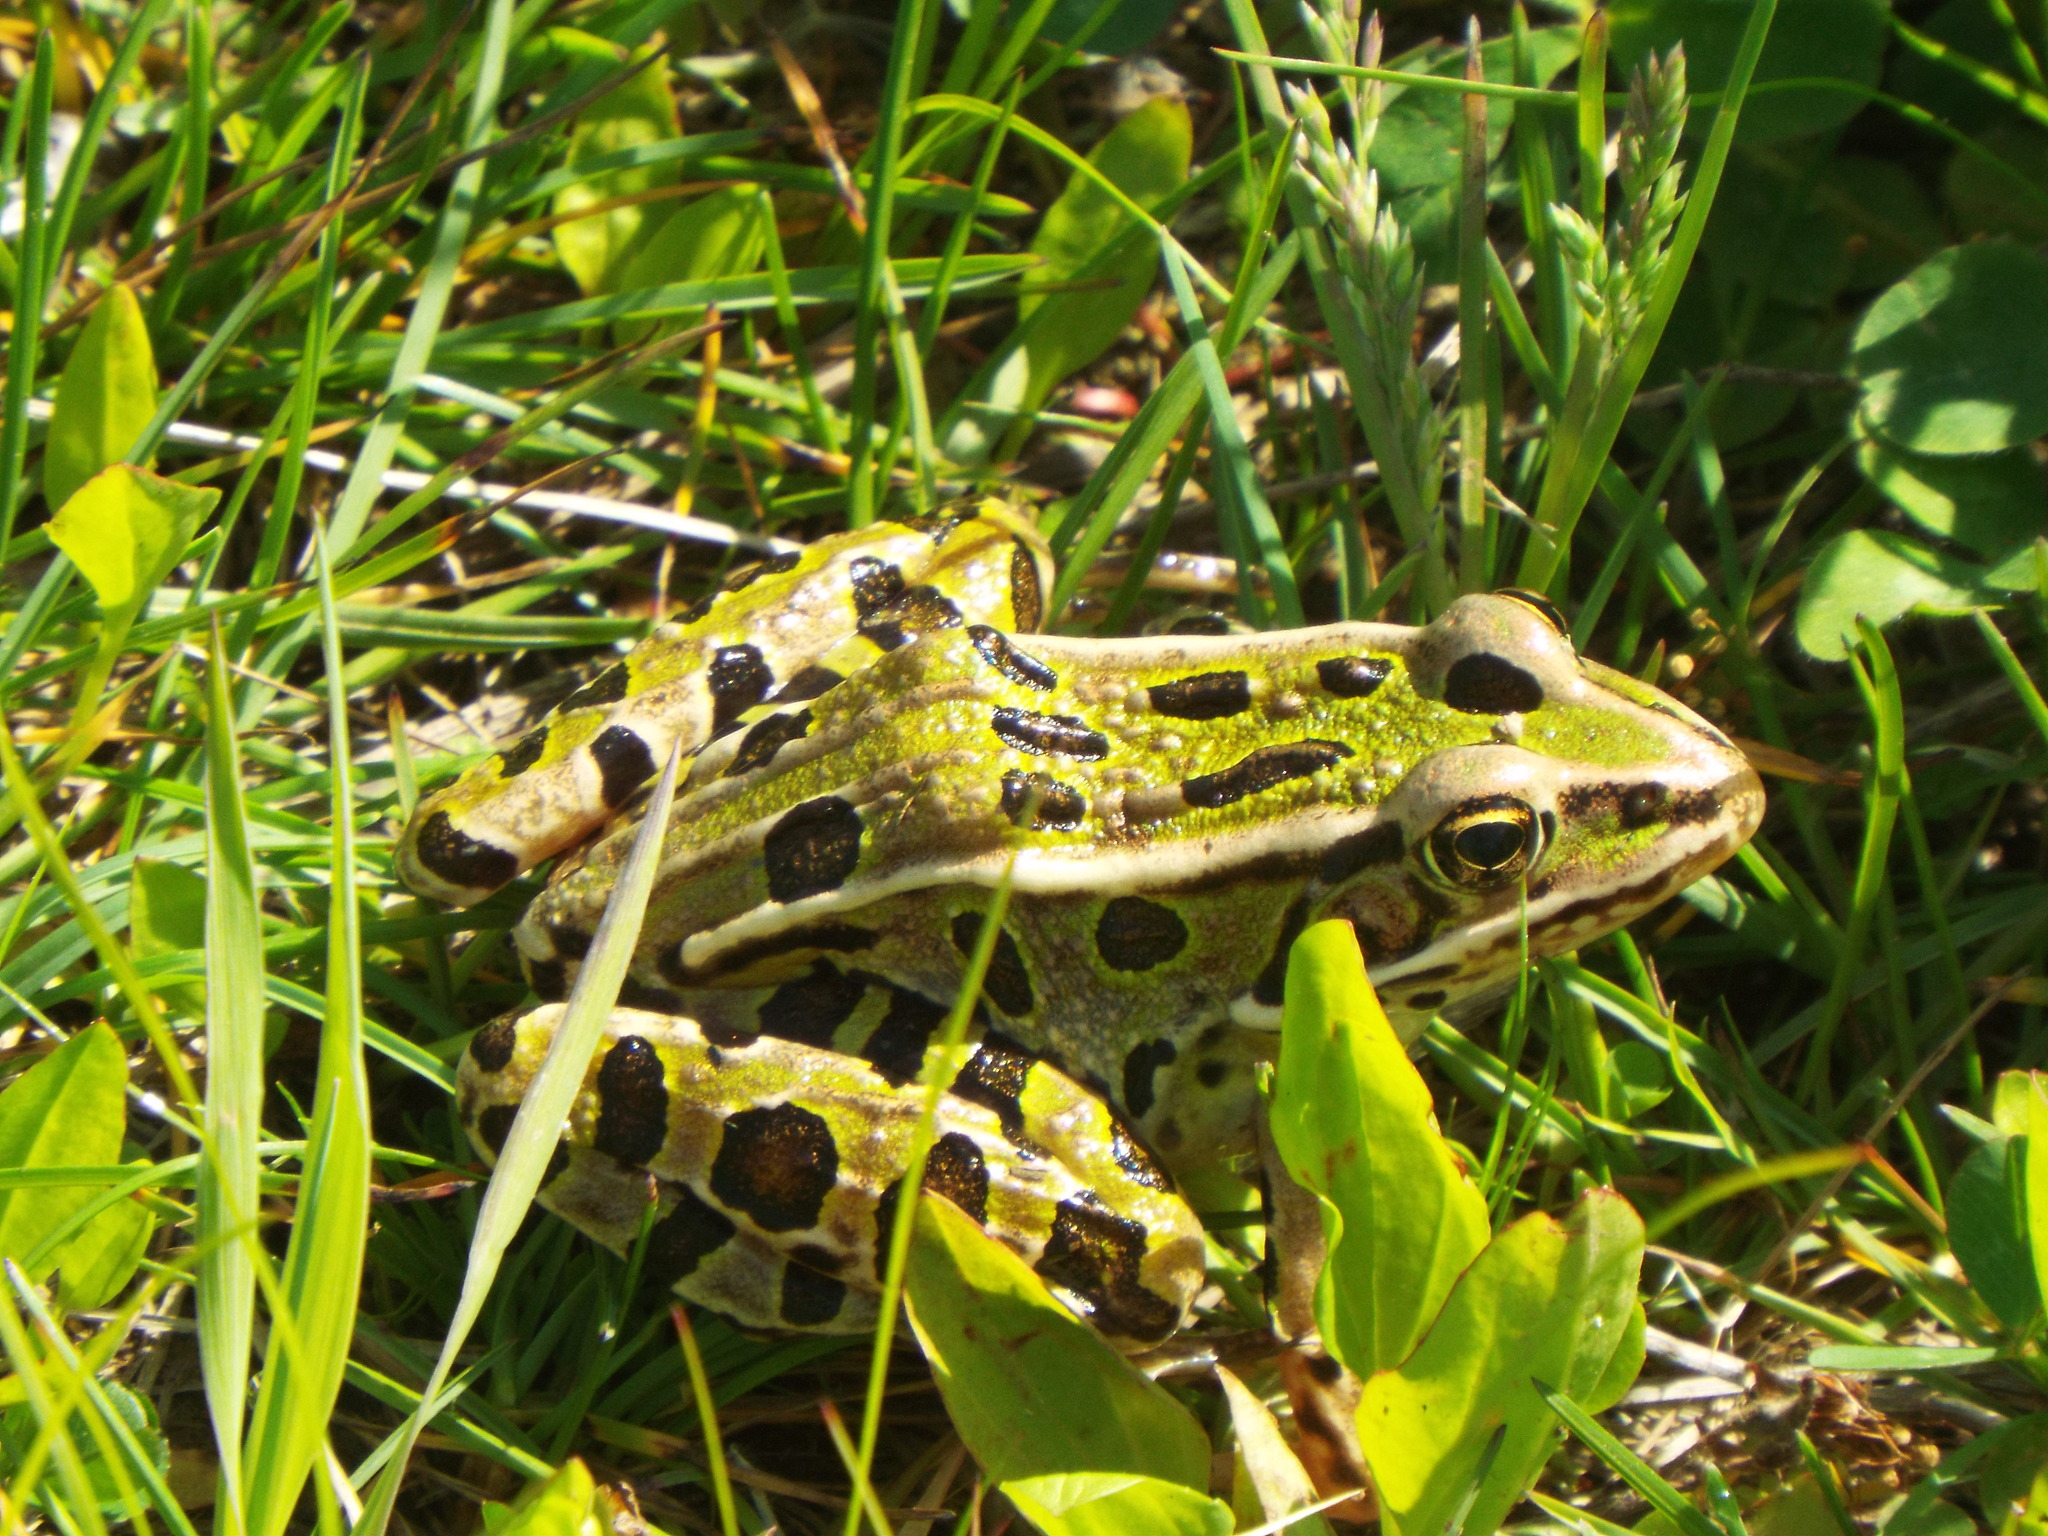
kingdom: Animalia
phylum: Chordata
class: Amphibia
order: Anura
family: Ranidae
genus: Lithobates
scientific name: Lithobates pipiens
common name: Northern leopard frog
